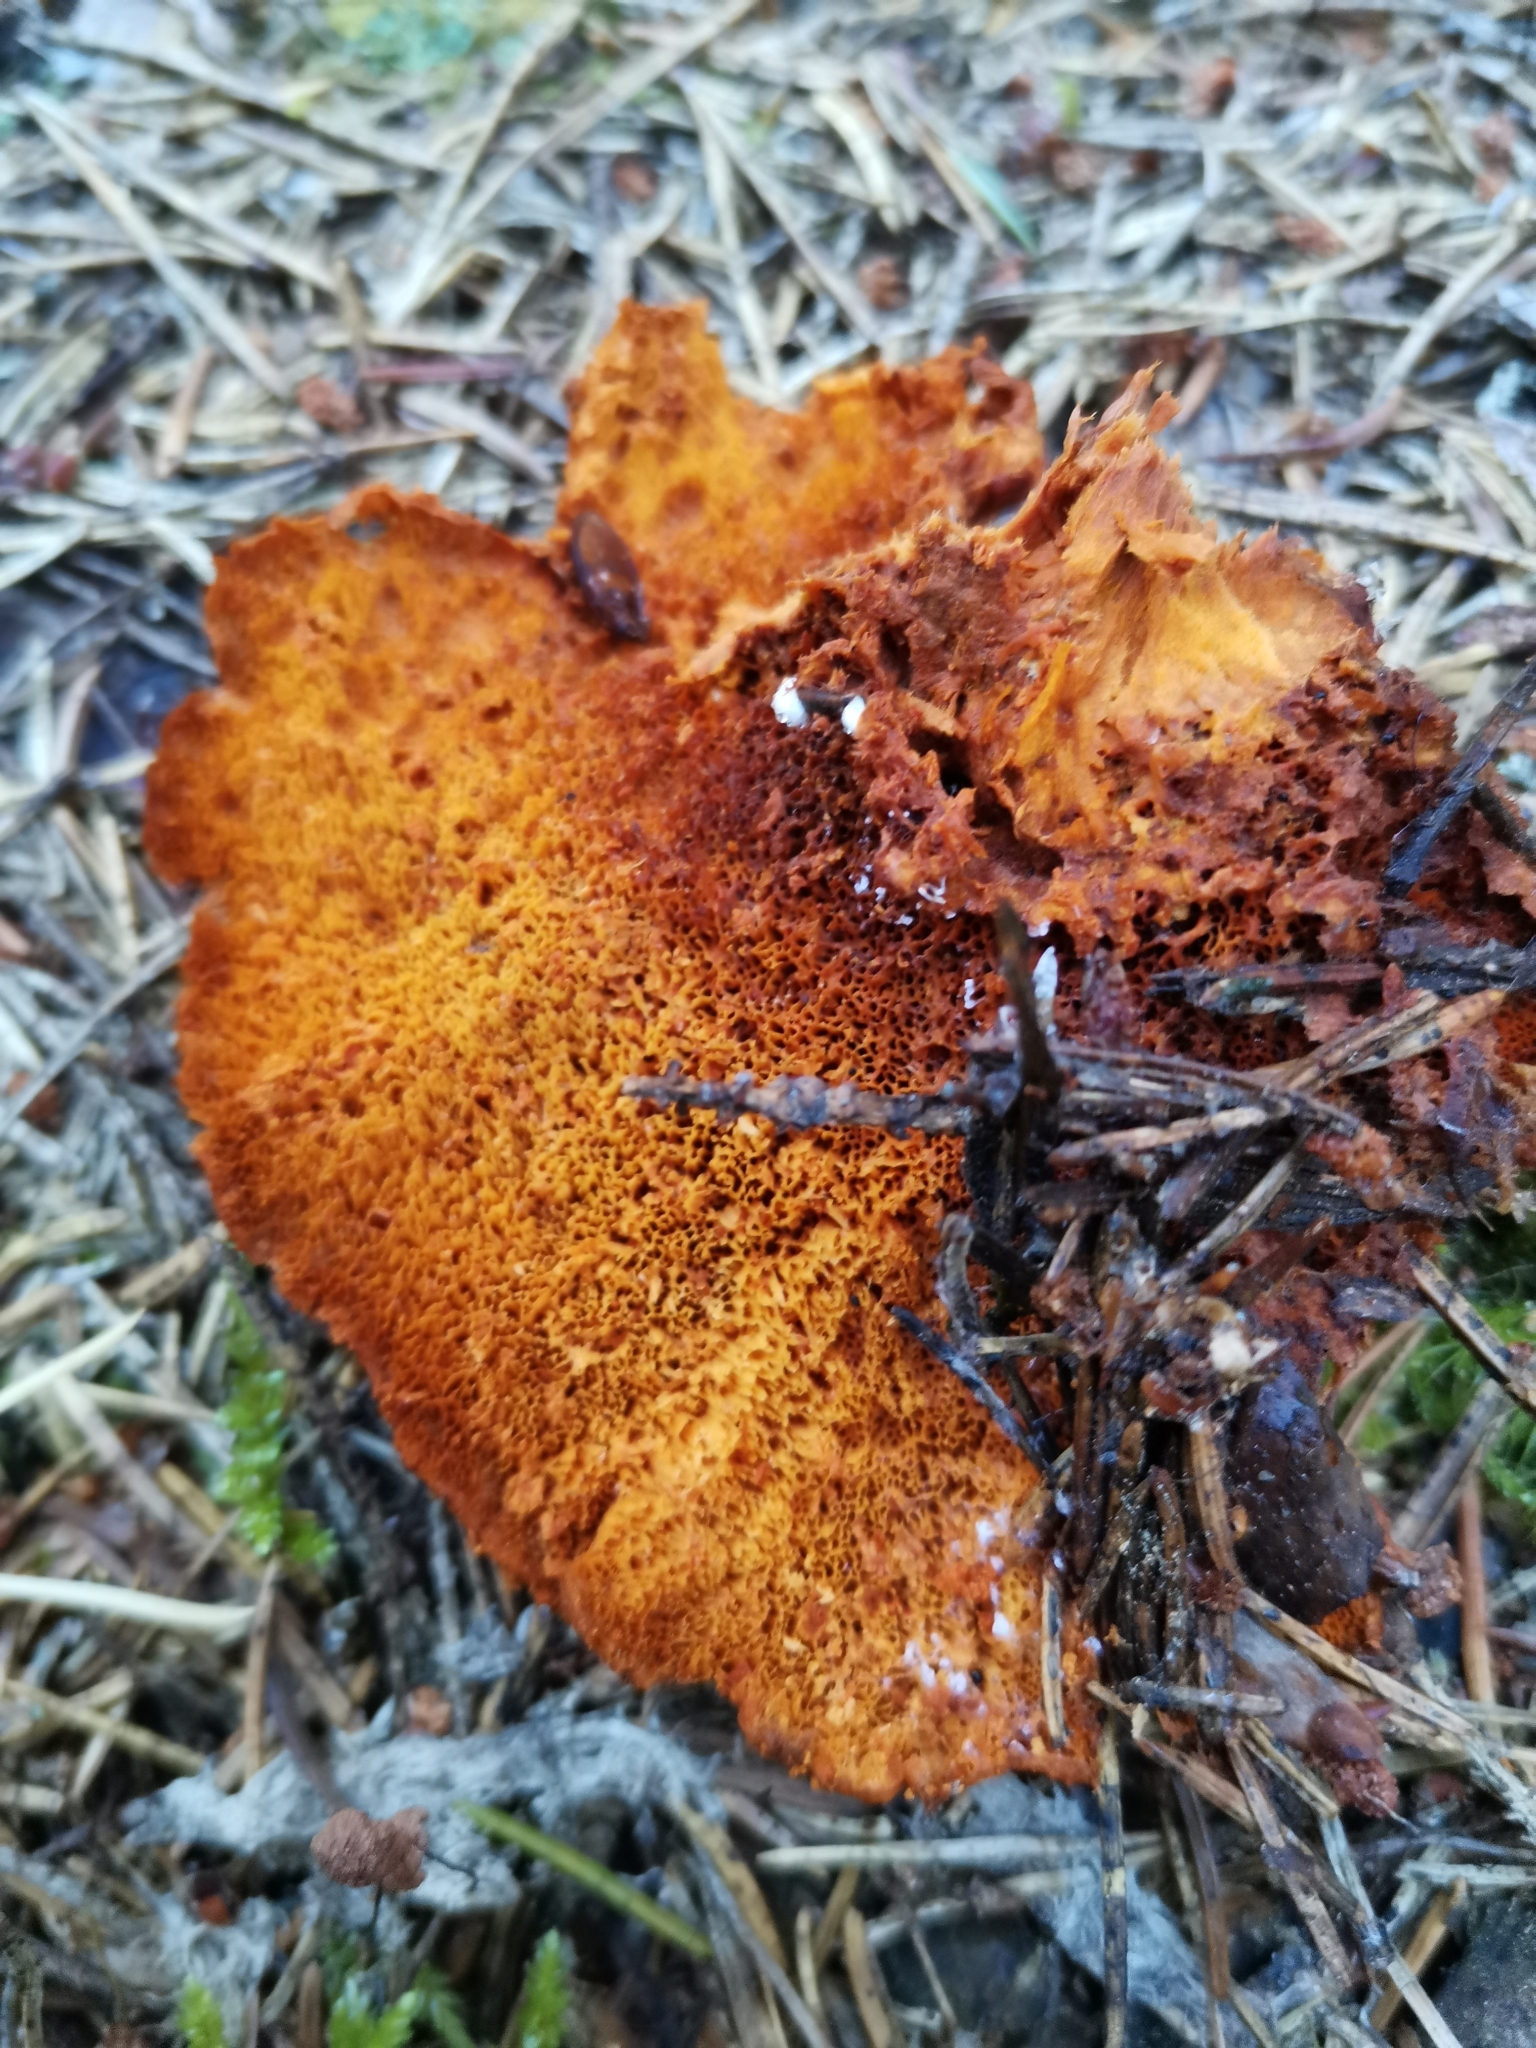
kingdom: Fungi
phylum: Basidiomycota
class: Agaricomycetes
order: Polyporales
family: Pycnoporellaceae
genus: Pycnoporellus
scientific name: Pycnoporellus fulgens
